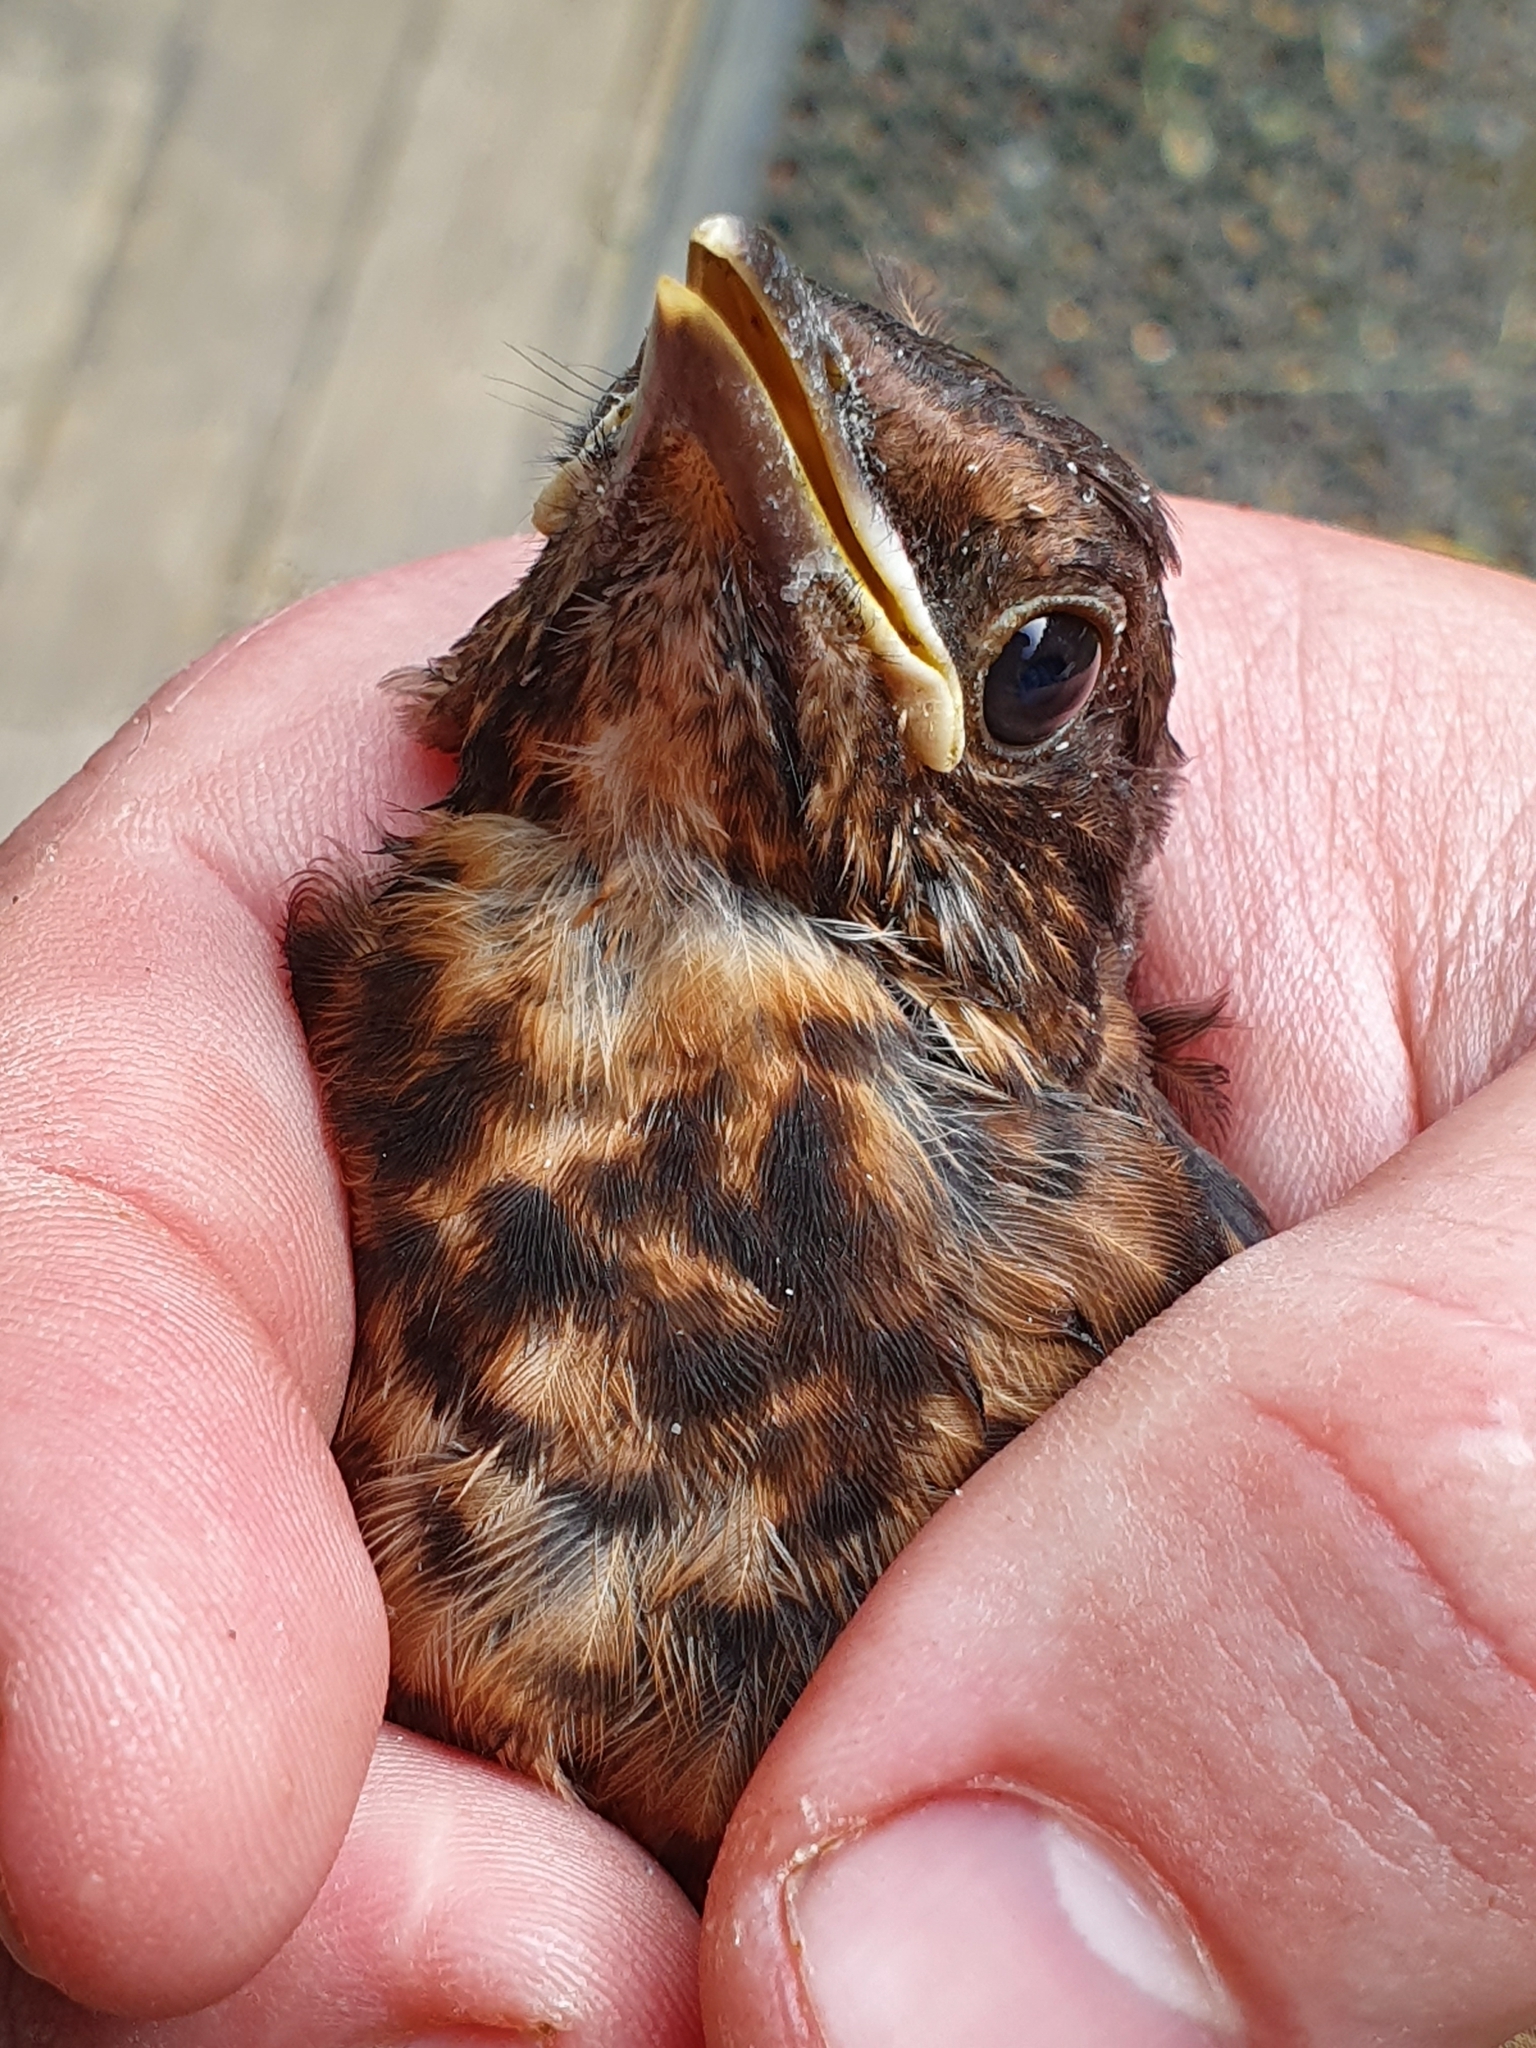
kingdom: Animalia
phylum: Chordata
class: Aves
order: Passeriformes
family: Turdidae
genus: Turdus
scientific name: Turdus merula
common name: Common blackbird
